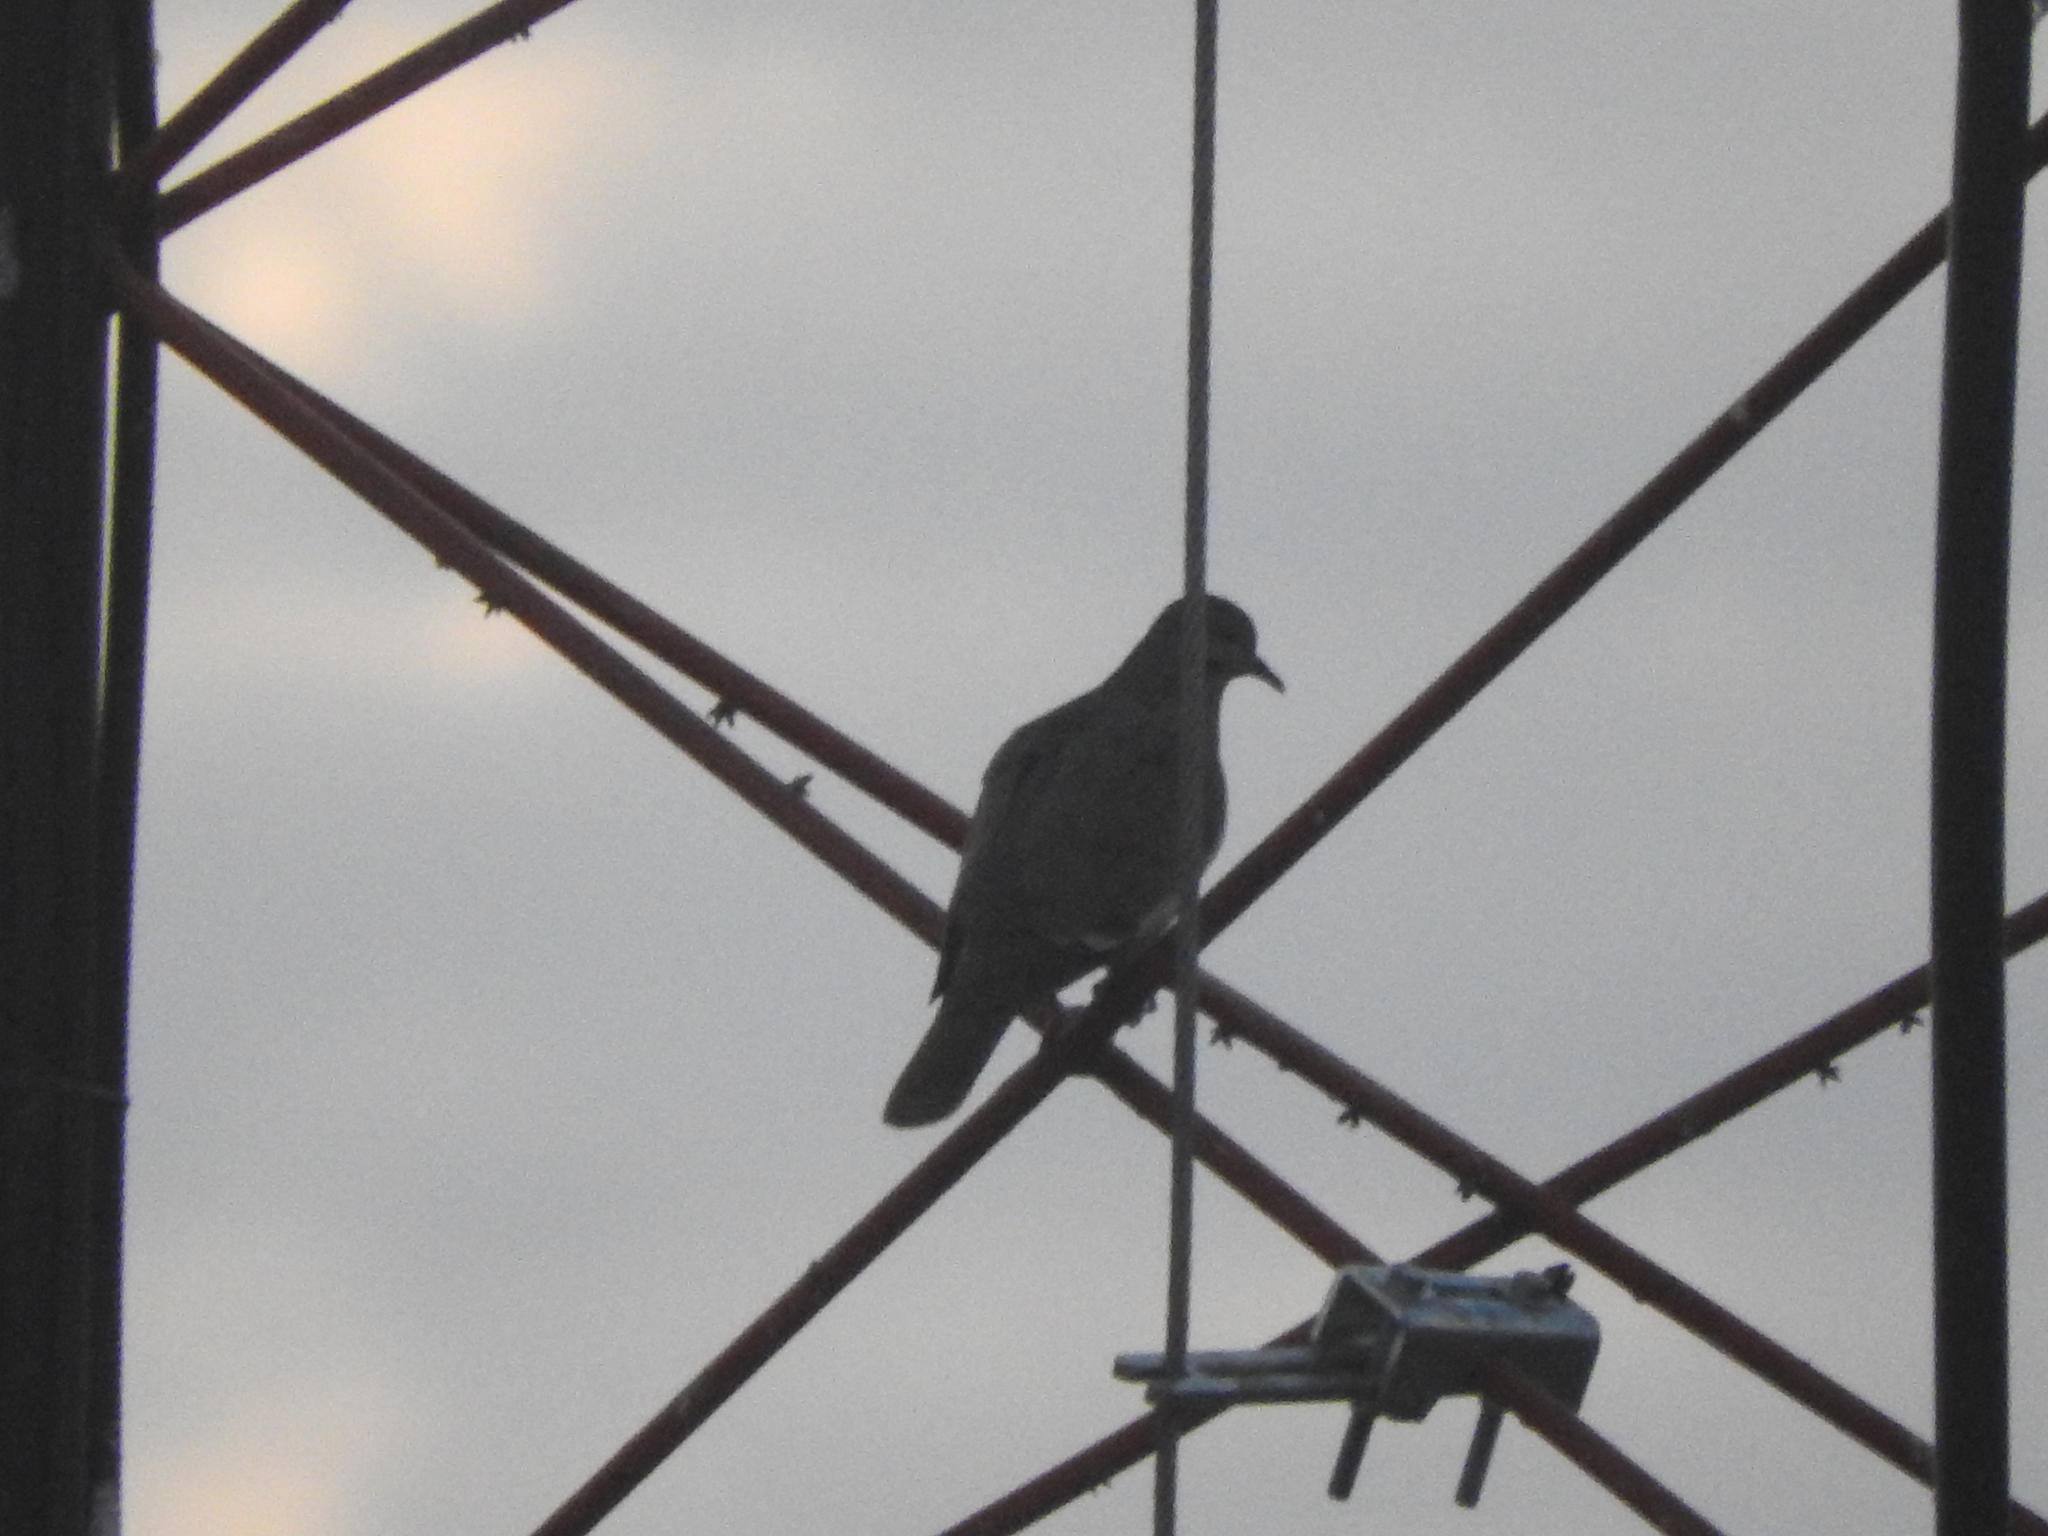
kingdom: Animalia
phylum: Chordata
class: Aves
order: Columbiformes
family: Columbidae
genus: Zenaida
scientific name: Zenaida asiatica
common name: White-winged dove
